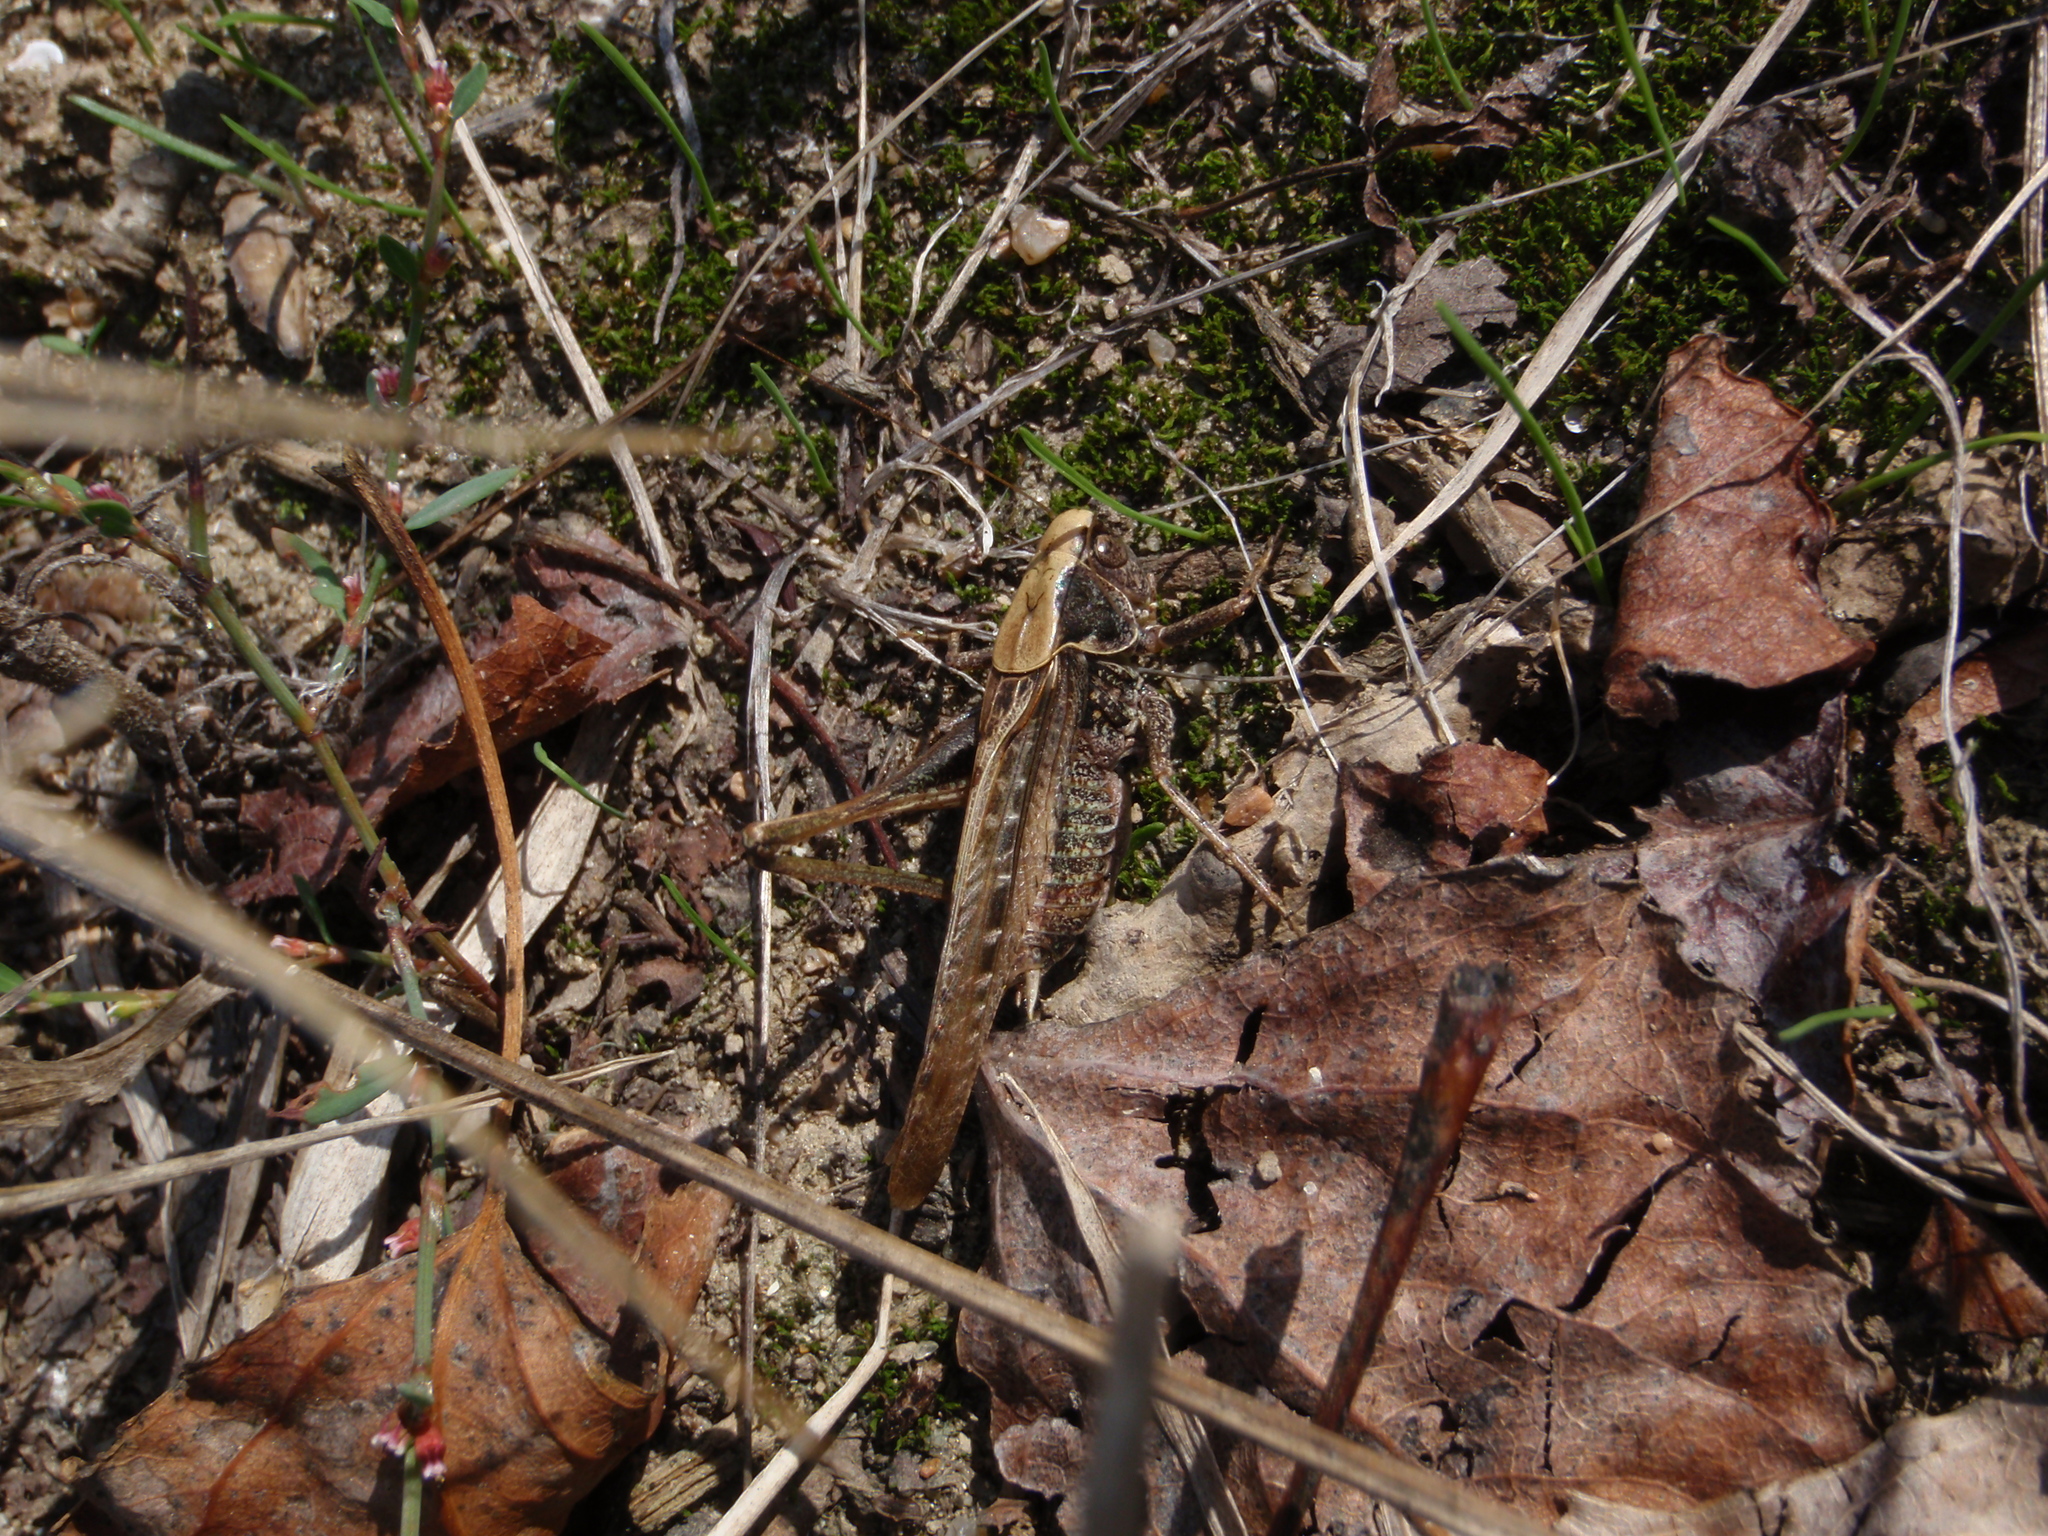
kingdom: Animalia
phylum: Arthropoda
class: Insecta
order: Orthoptera
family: Tettigoniidae
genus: Platycleis
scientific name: Platycleis albopunctata
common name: Grey bush-cricket
